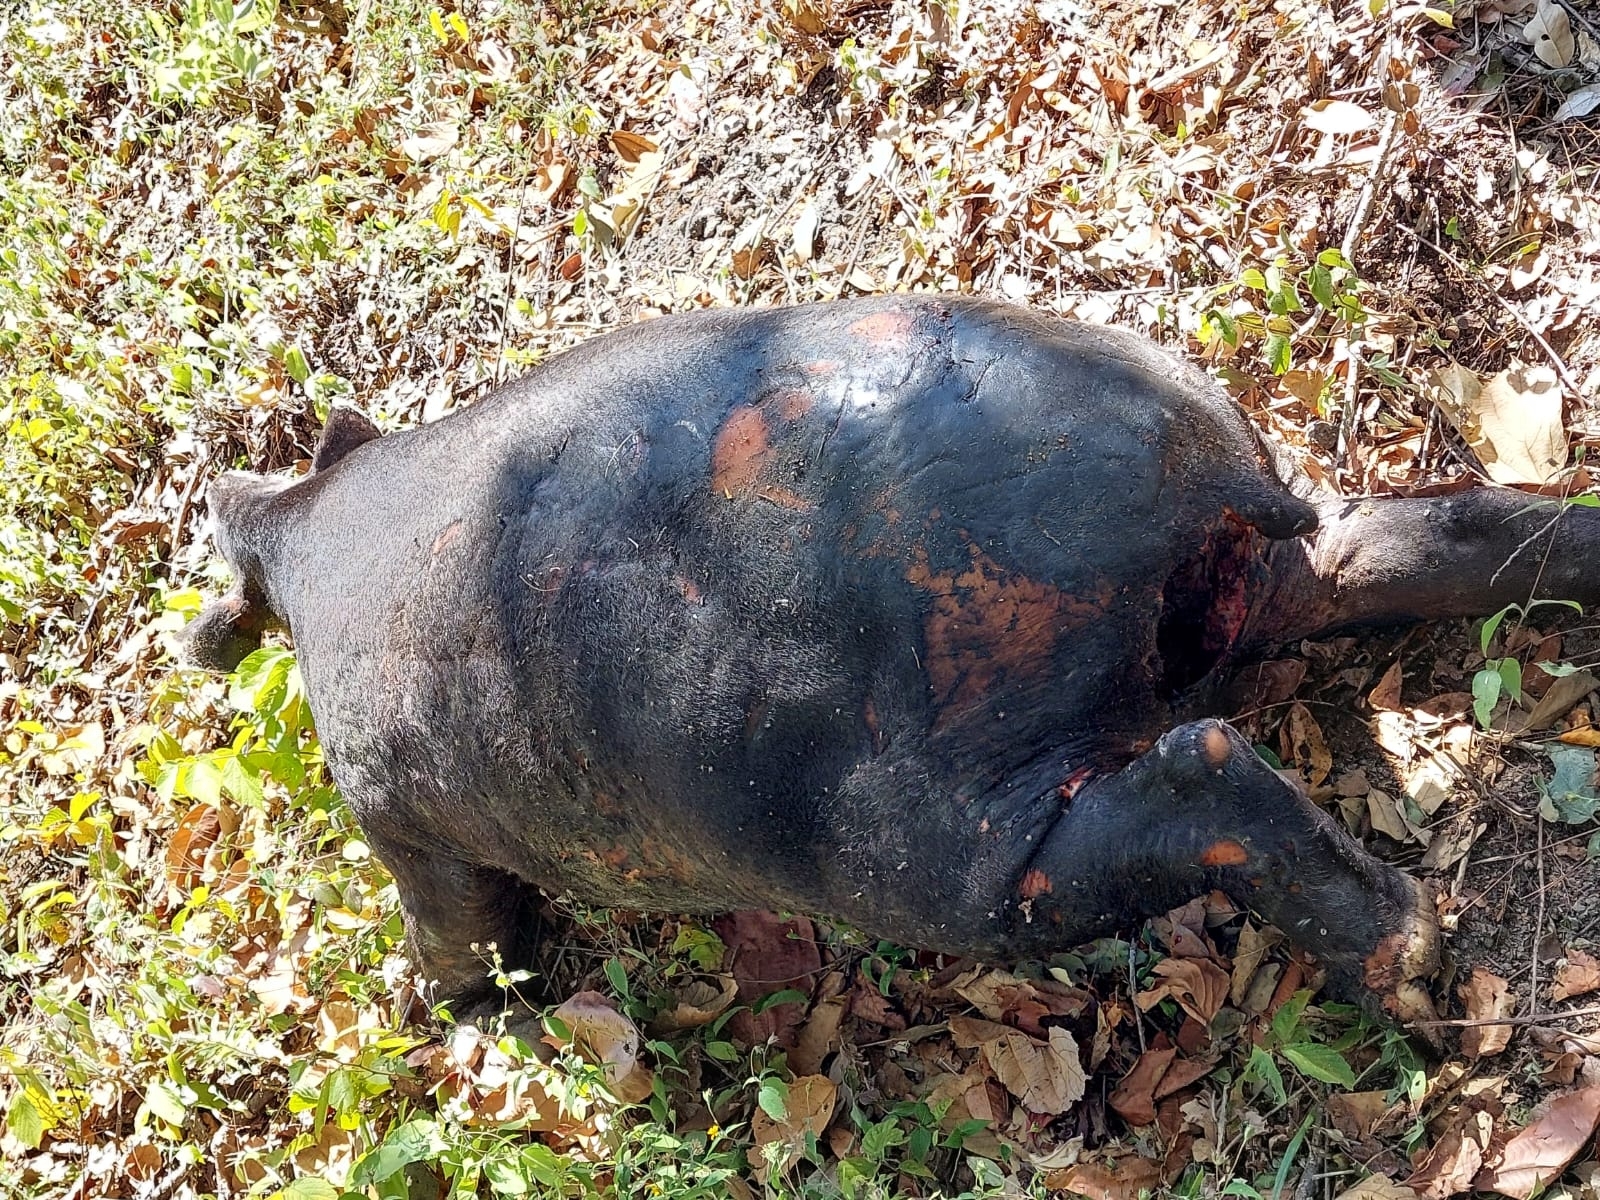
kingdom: Animalia
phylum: Chordata
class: Mammalia
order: Perissodactyla
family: Tapiridae
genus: Tapirella
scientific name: Tapirella bairdii
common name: Baird's tapir
